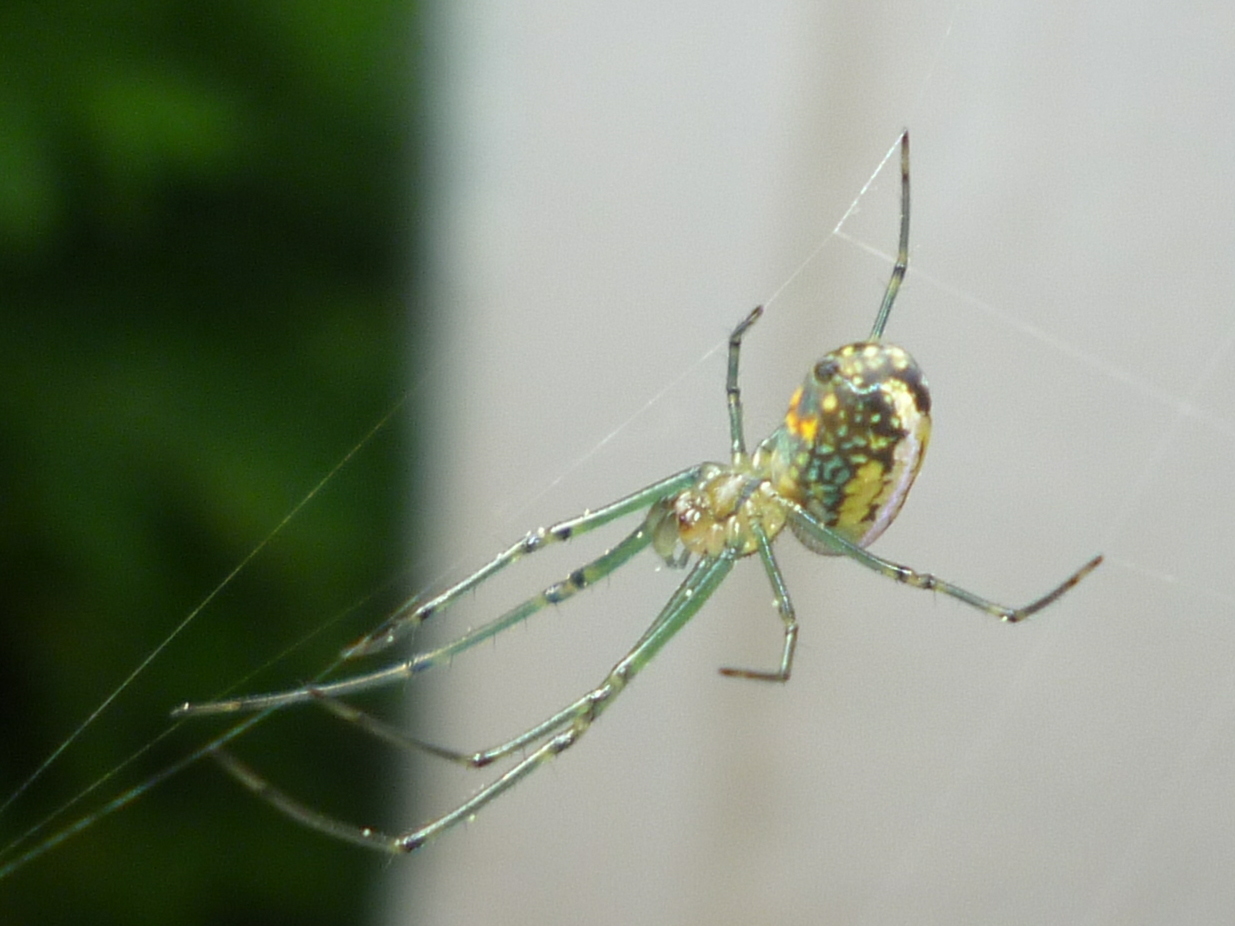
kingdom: Animalia
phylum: Arthropoda
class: Arachnida
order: Araneae
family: Tetragnathidae
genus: Leucauge
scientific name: Leucauge venusta
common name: Longjawed orb weavers
